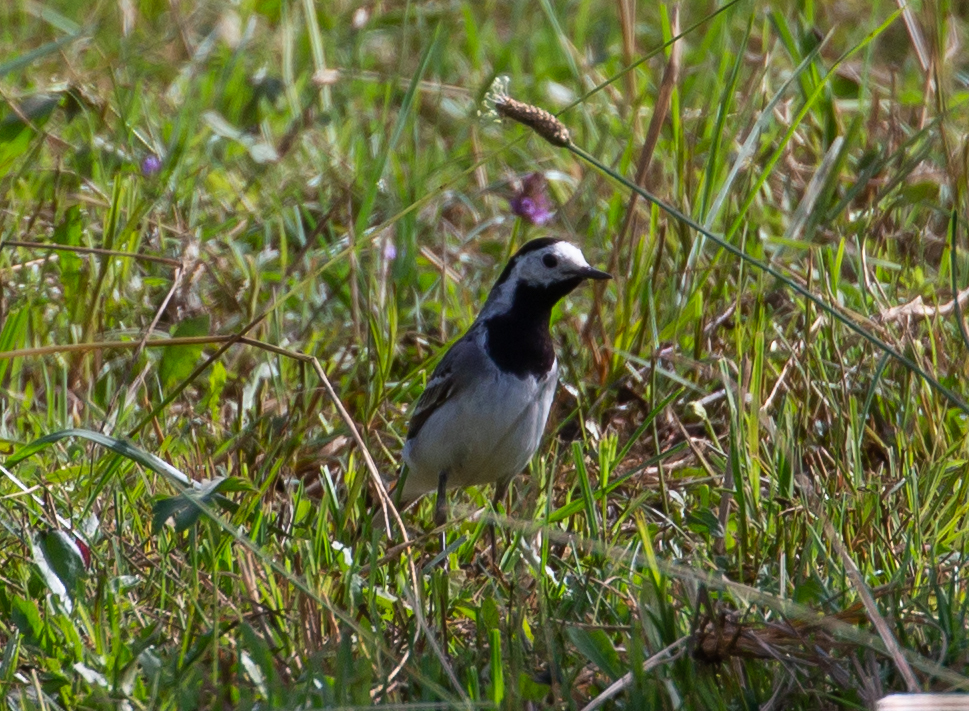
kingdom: Animalia
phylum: Chordata
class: Aves
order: Passeriformes
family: Motacillidae
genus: Motacilla
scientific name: Motacilla alba
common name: White wagtail
